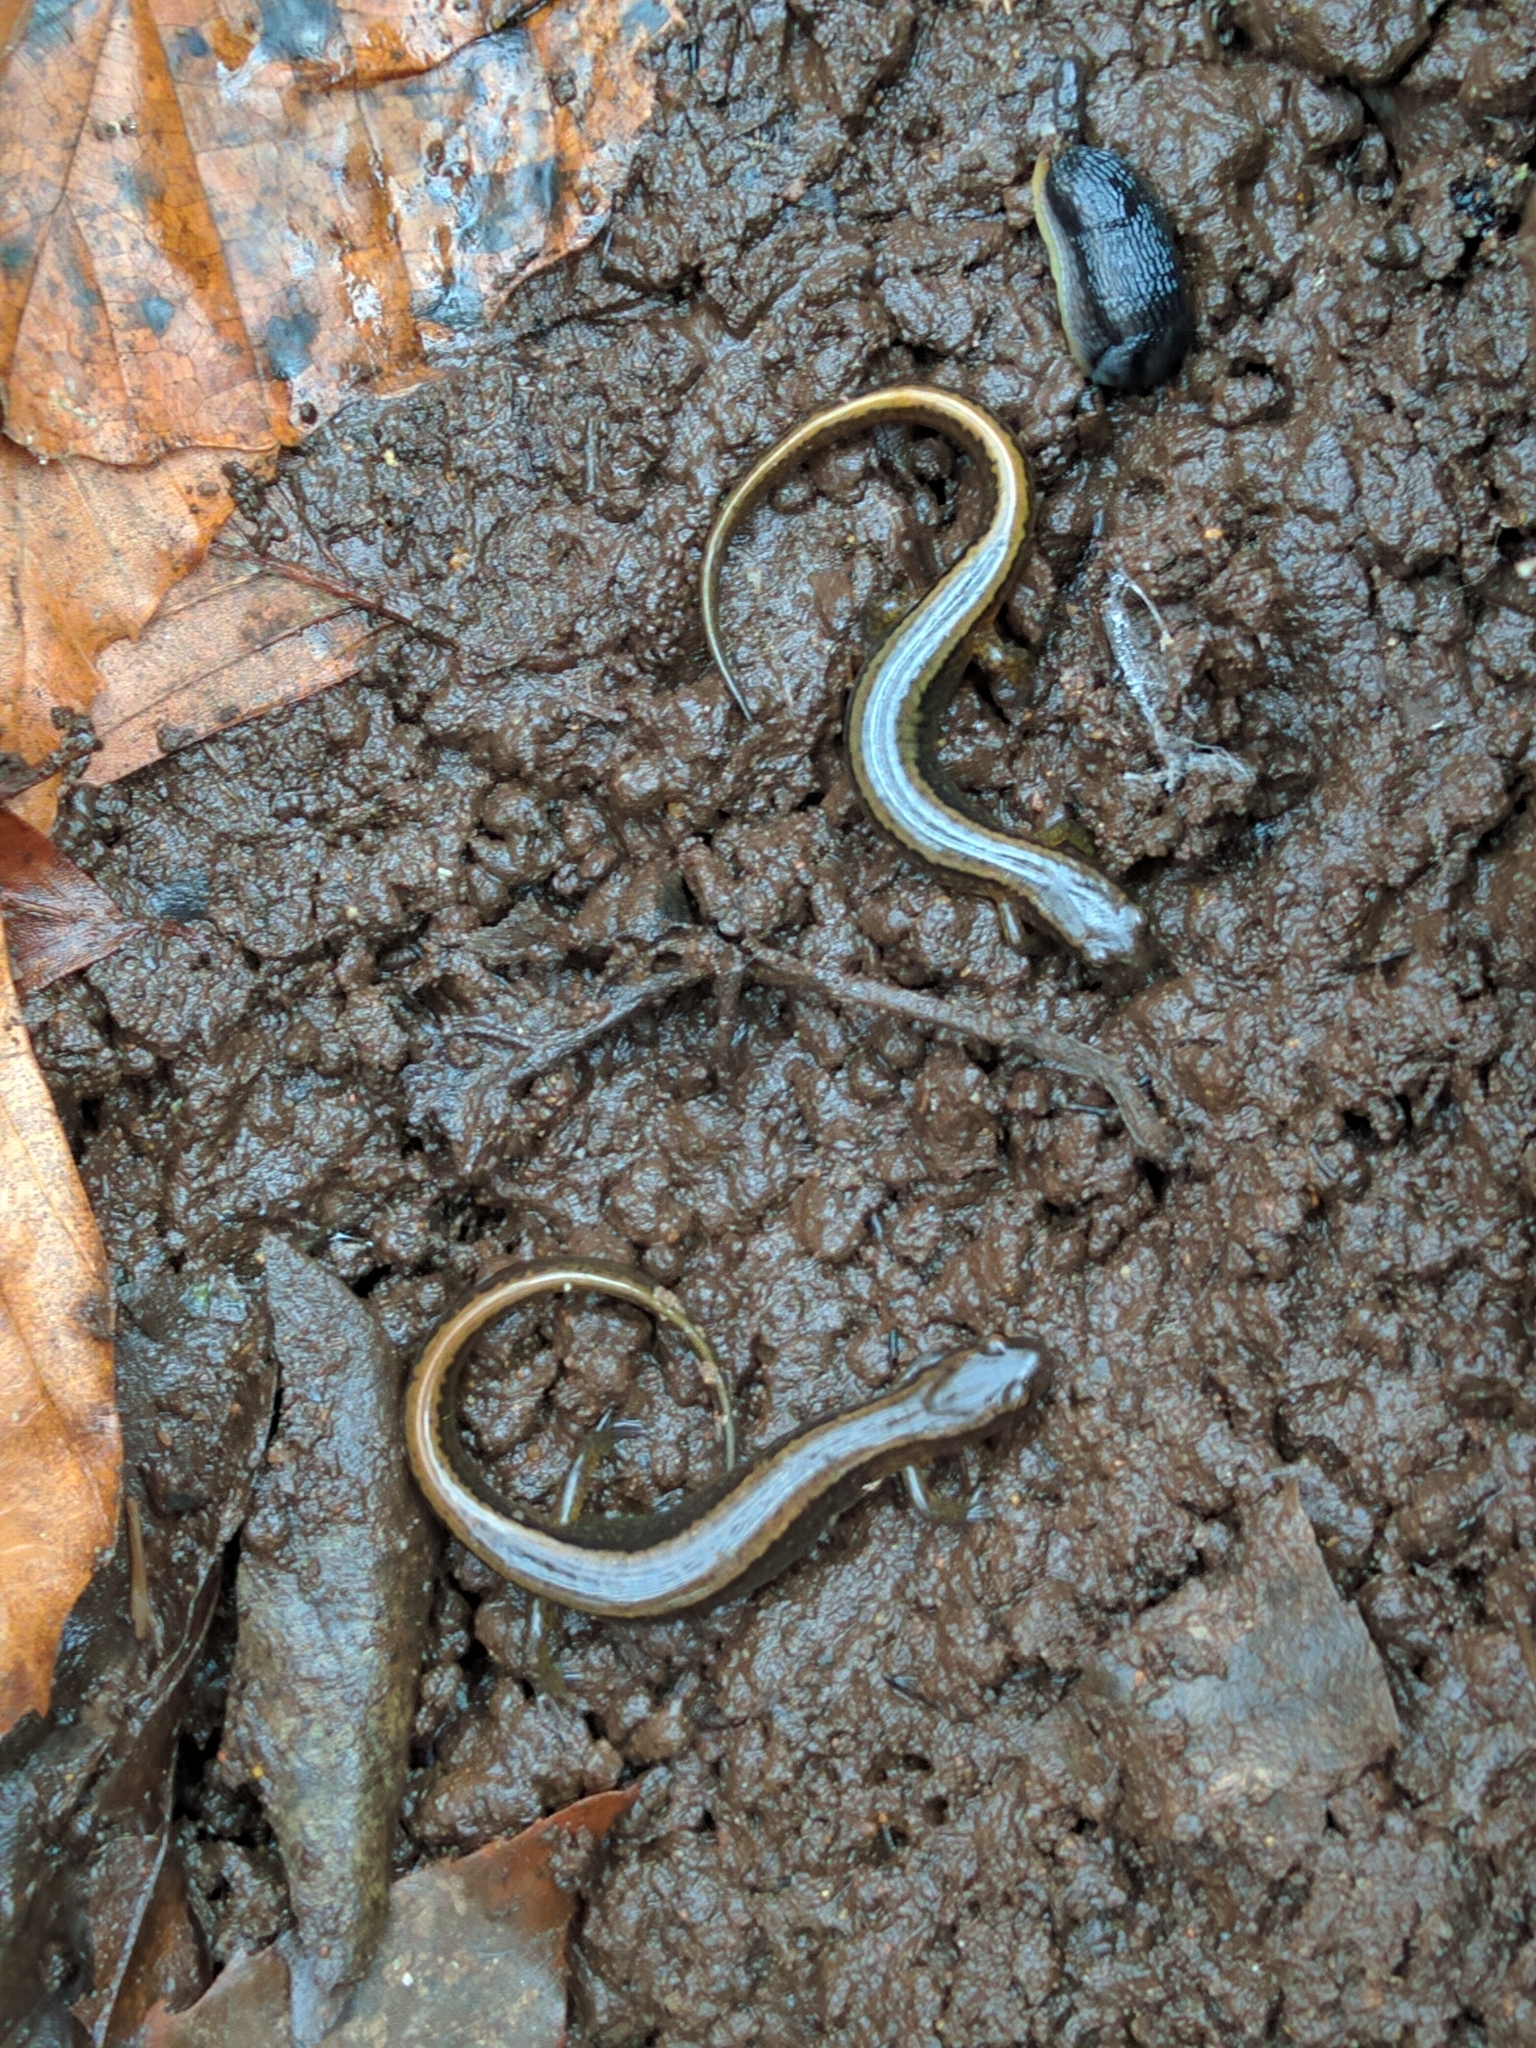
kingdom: Animalia
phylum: Chordata
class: Amphibia
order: Caudata
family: Plethodontidae
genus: Eurycea
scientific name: Eurycea bislineata
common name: Northern two-lined salamander
